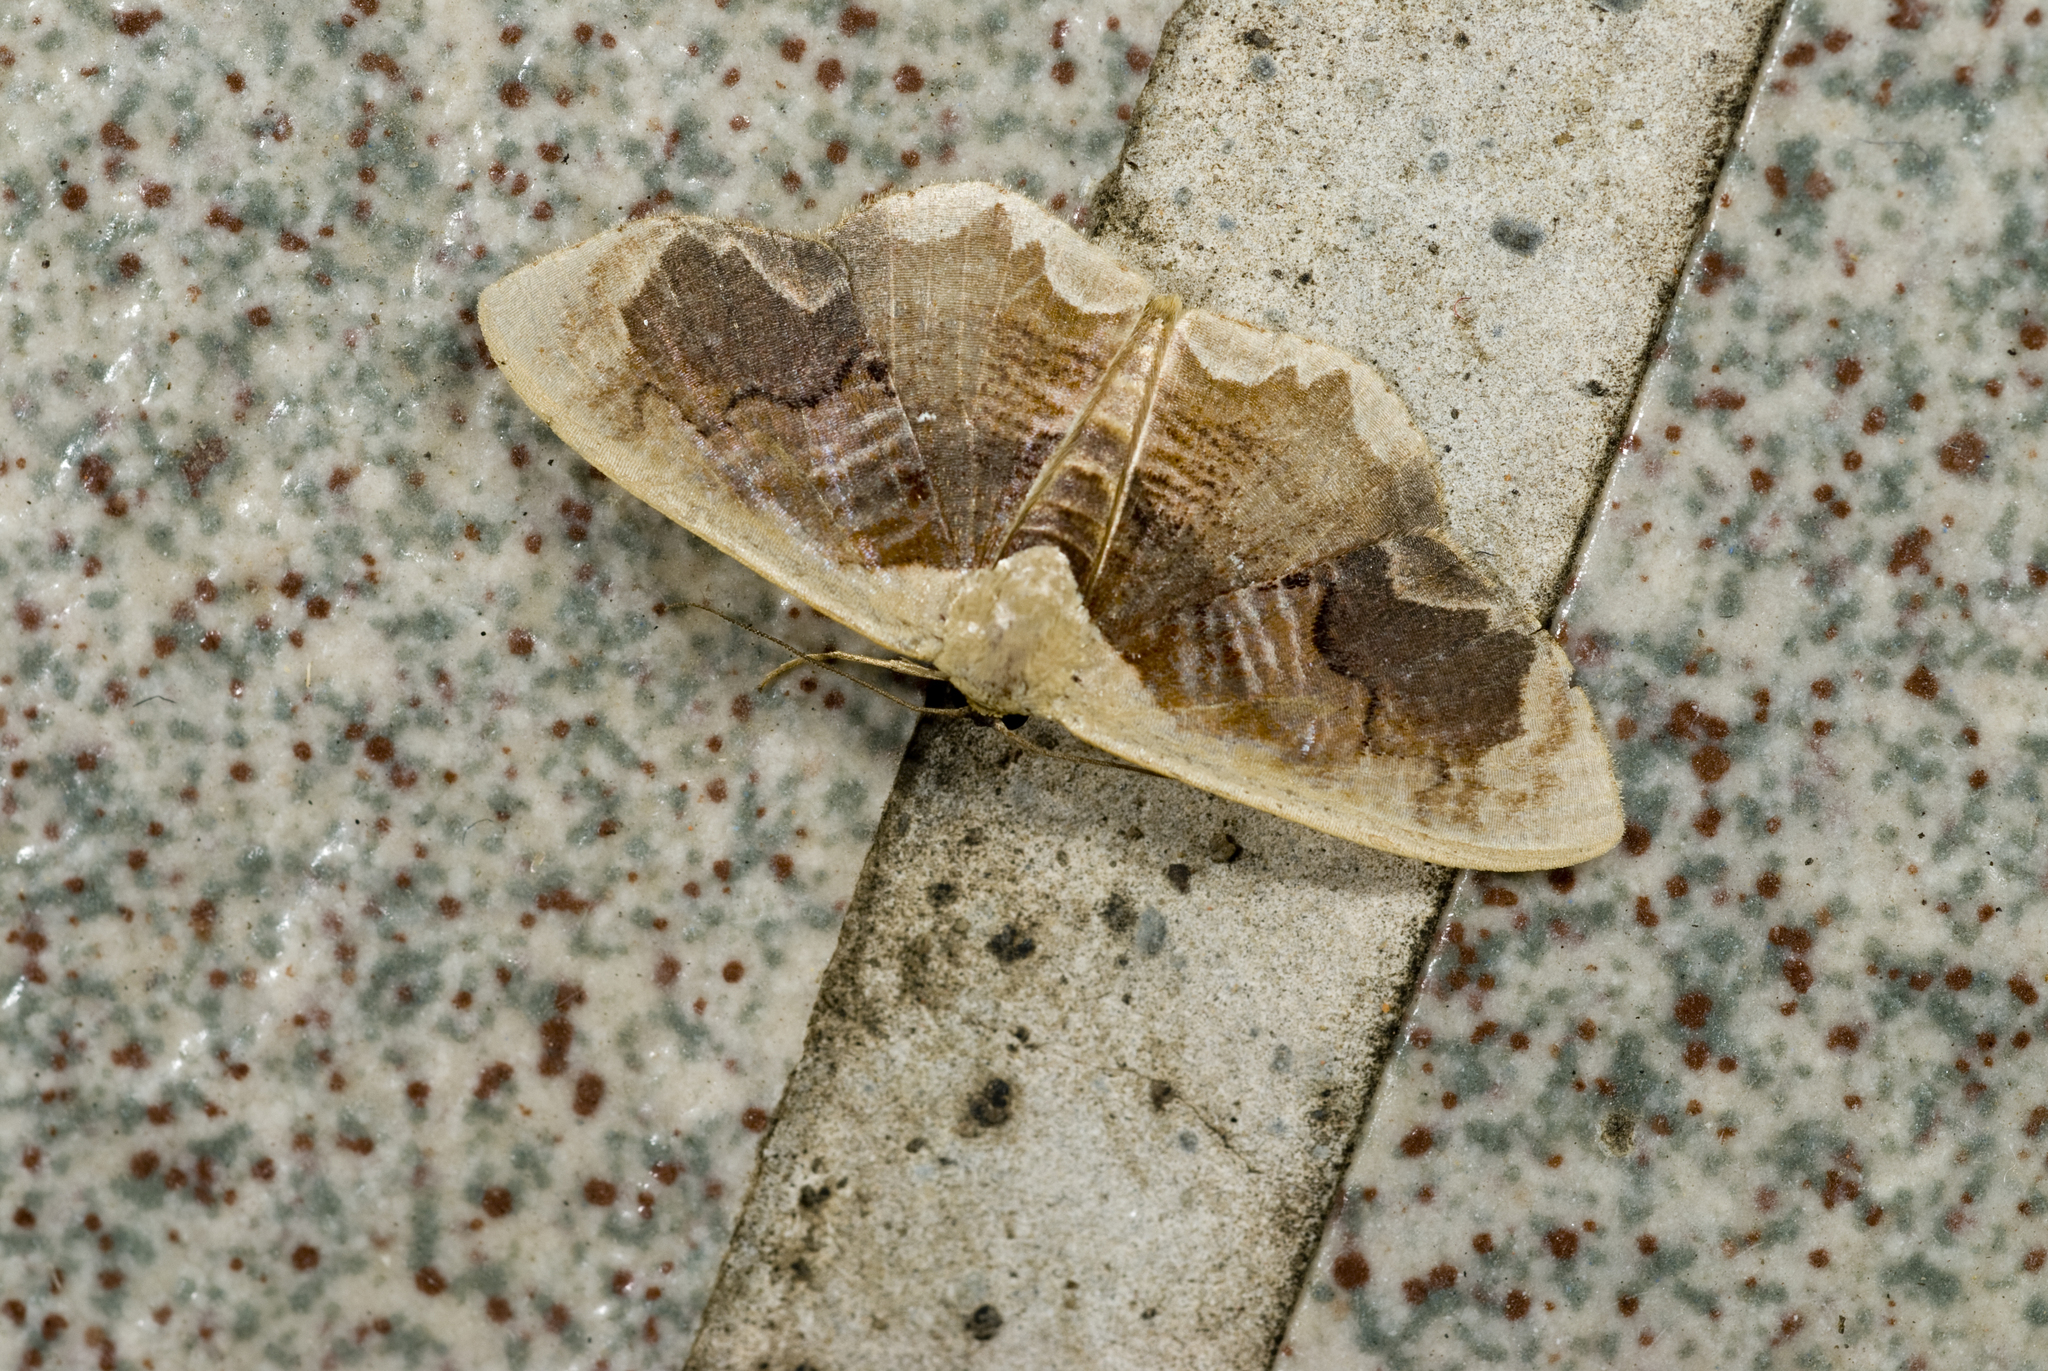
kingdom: Animalia
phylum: Arthropoda
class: Insecta
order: Lepidoptera
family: Geometridae
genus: Lipomelia
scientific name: Lipomelia subusta
